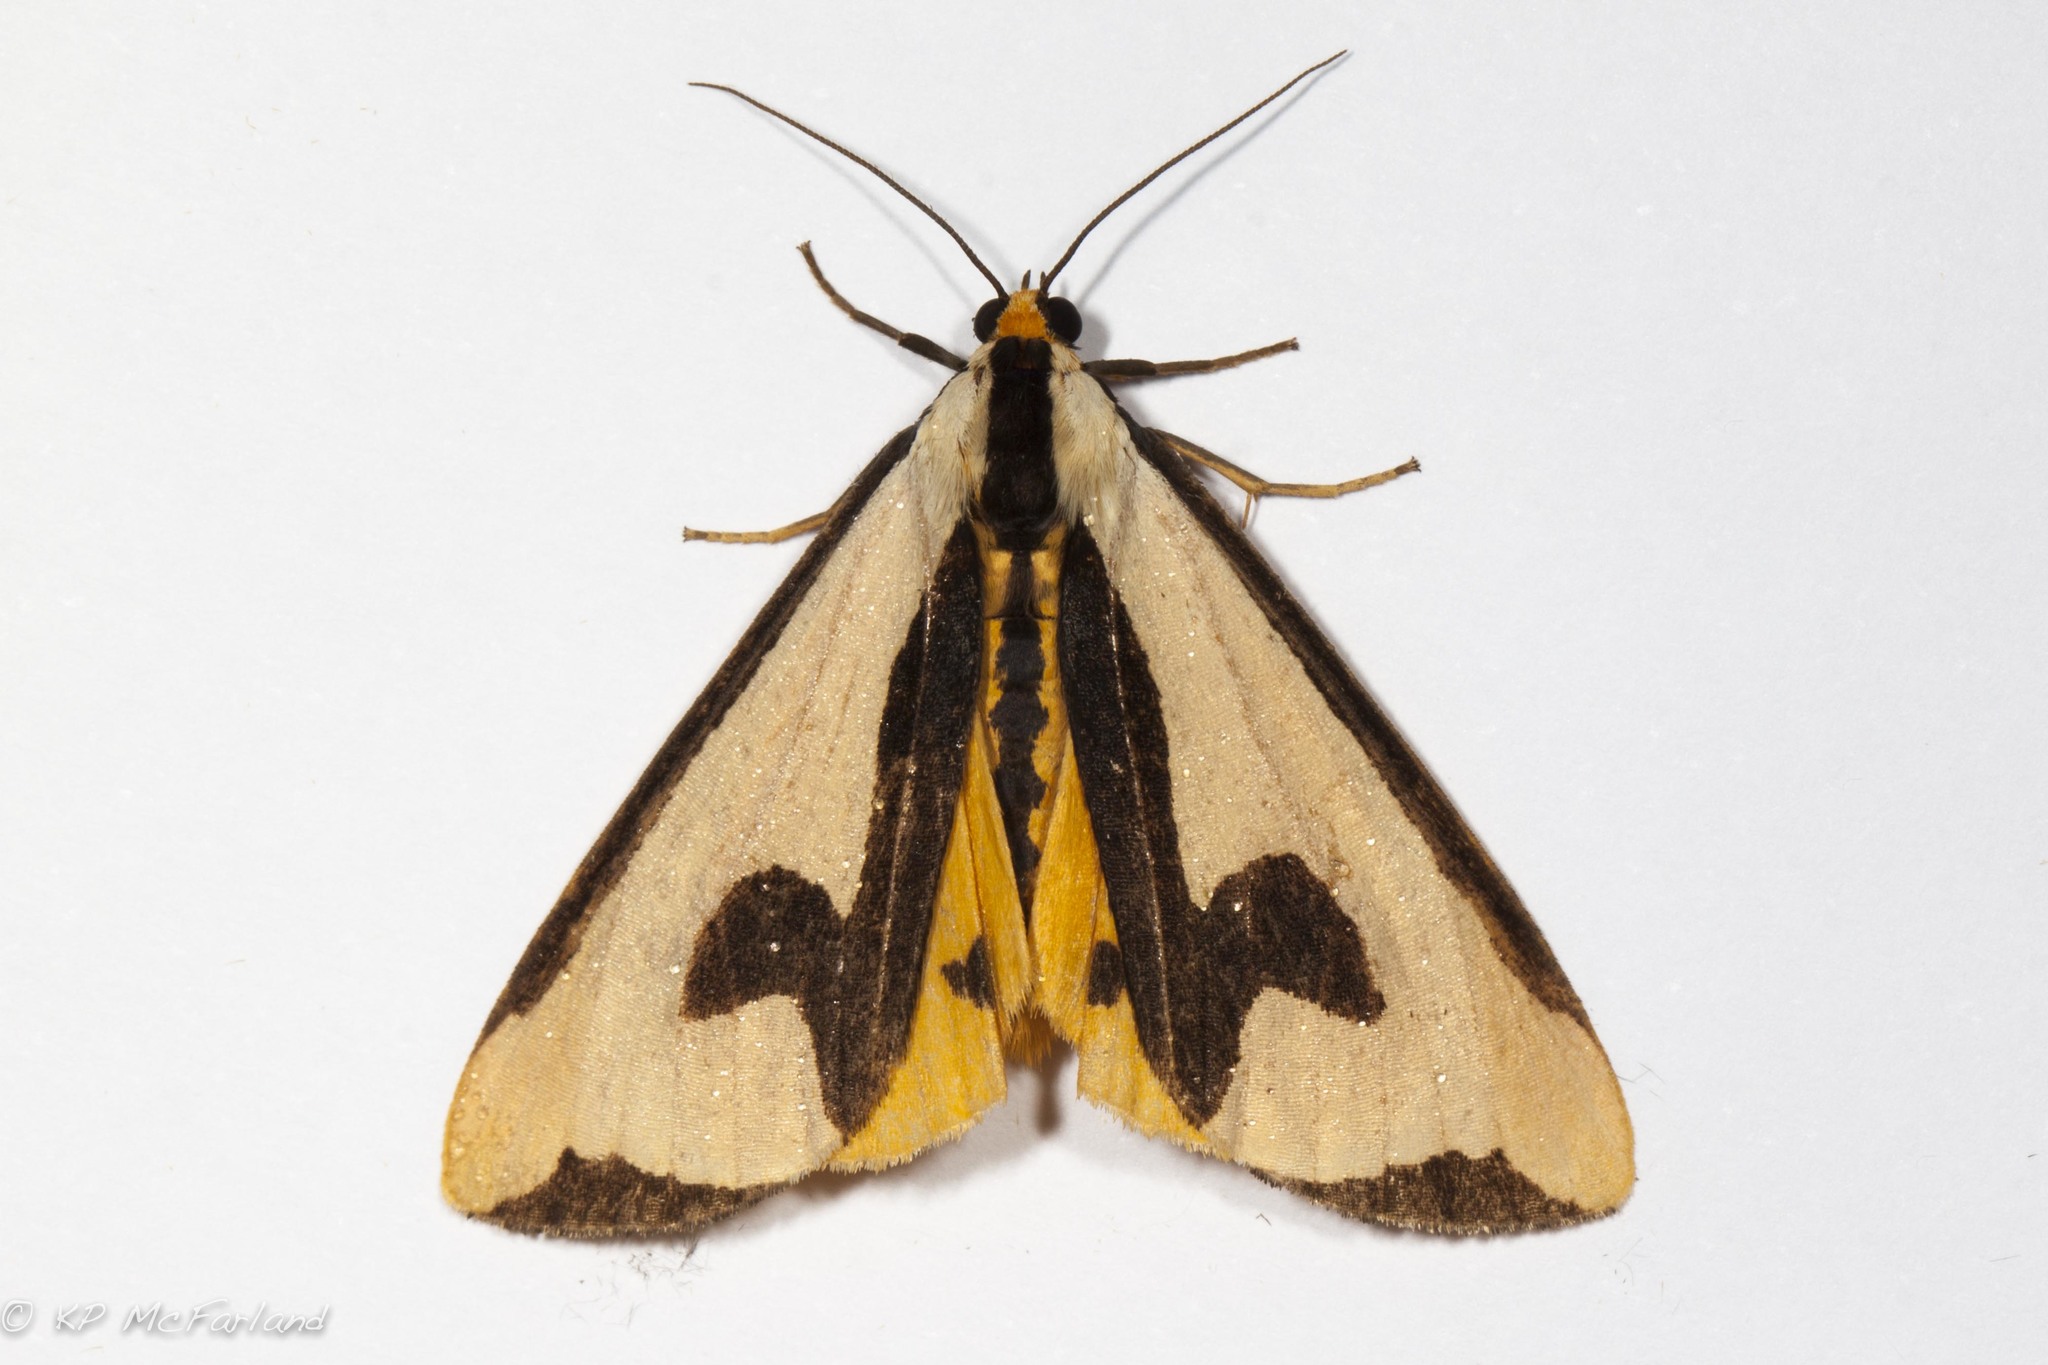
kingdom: Animalia
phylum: Arthropoda
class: Insecta
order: Lepidoptera
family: Erebidae
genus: Haploa
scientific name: Haploa clymene
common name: Clymene moth
